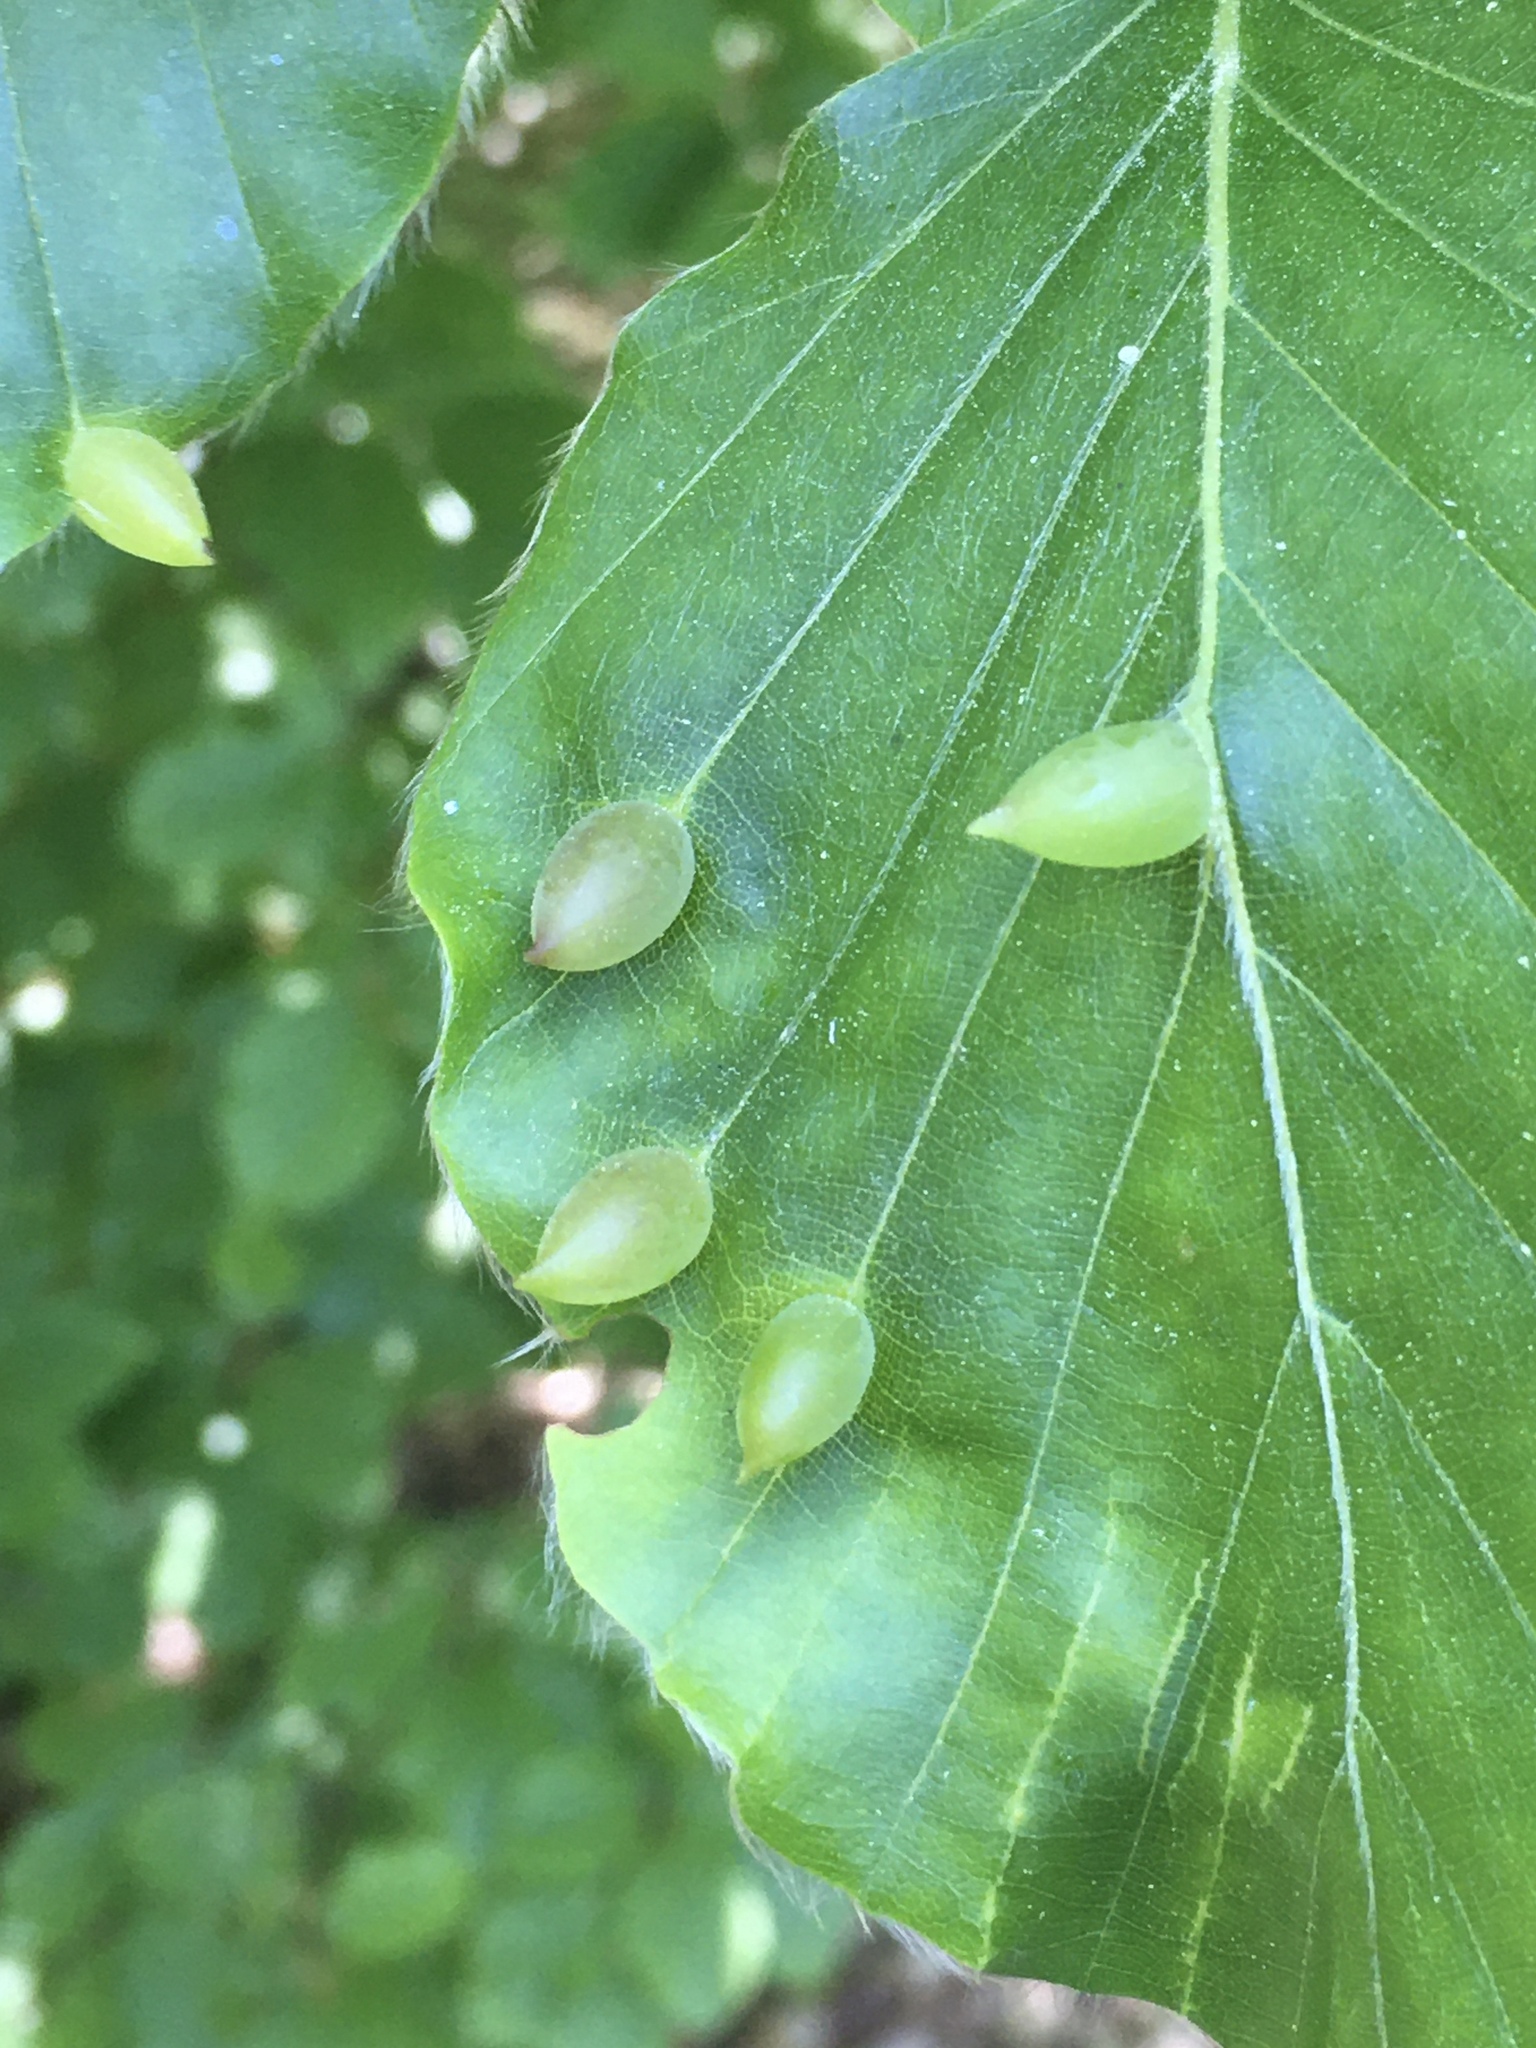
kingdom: Animalia
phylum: Arthropoda
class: Insecta
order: Diptera
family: Cecidomyiidae
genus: Mikiola
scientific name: Mikiola fagi
